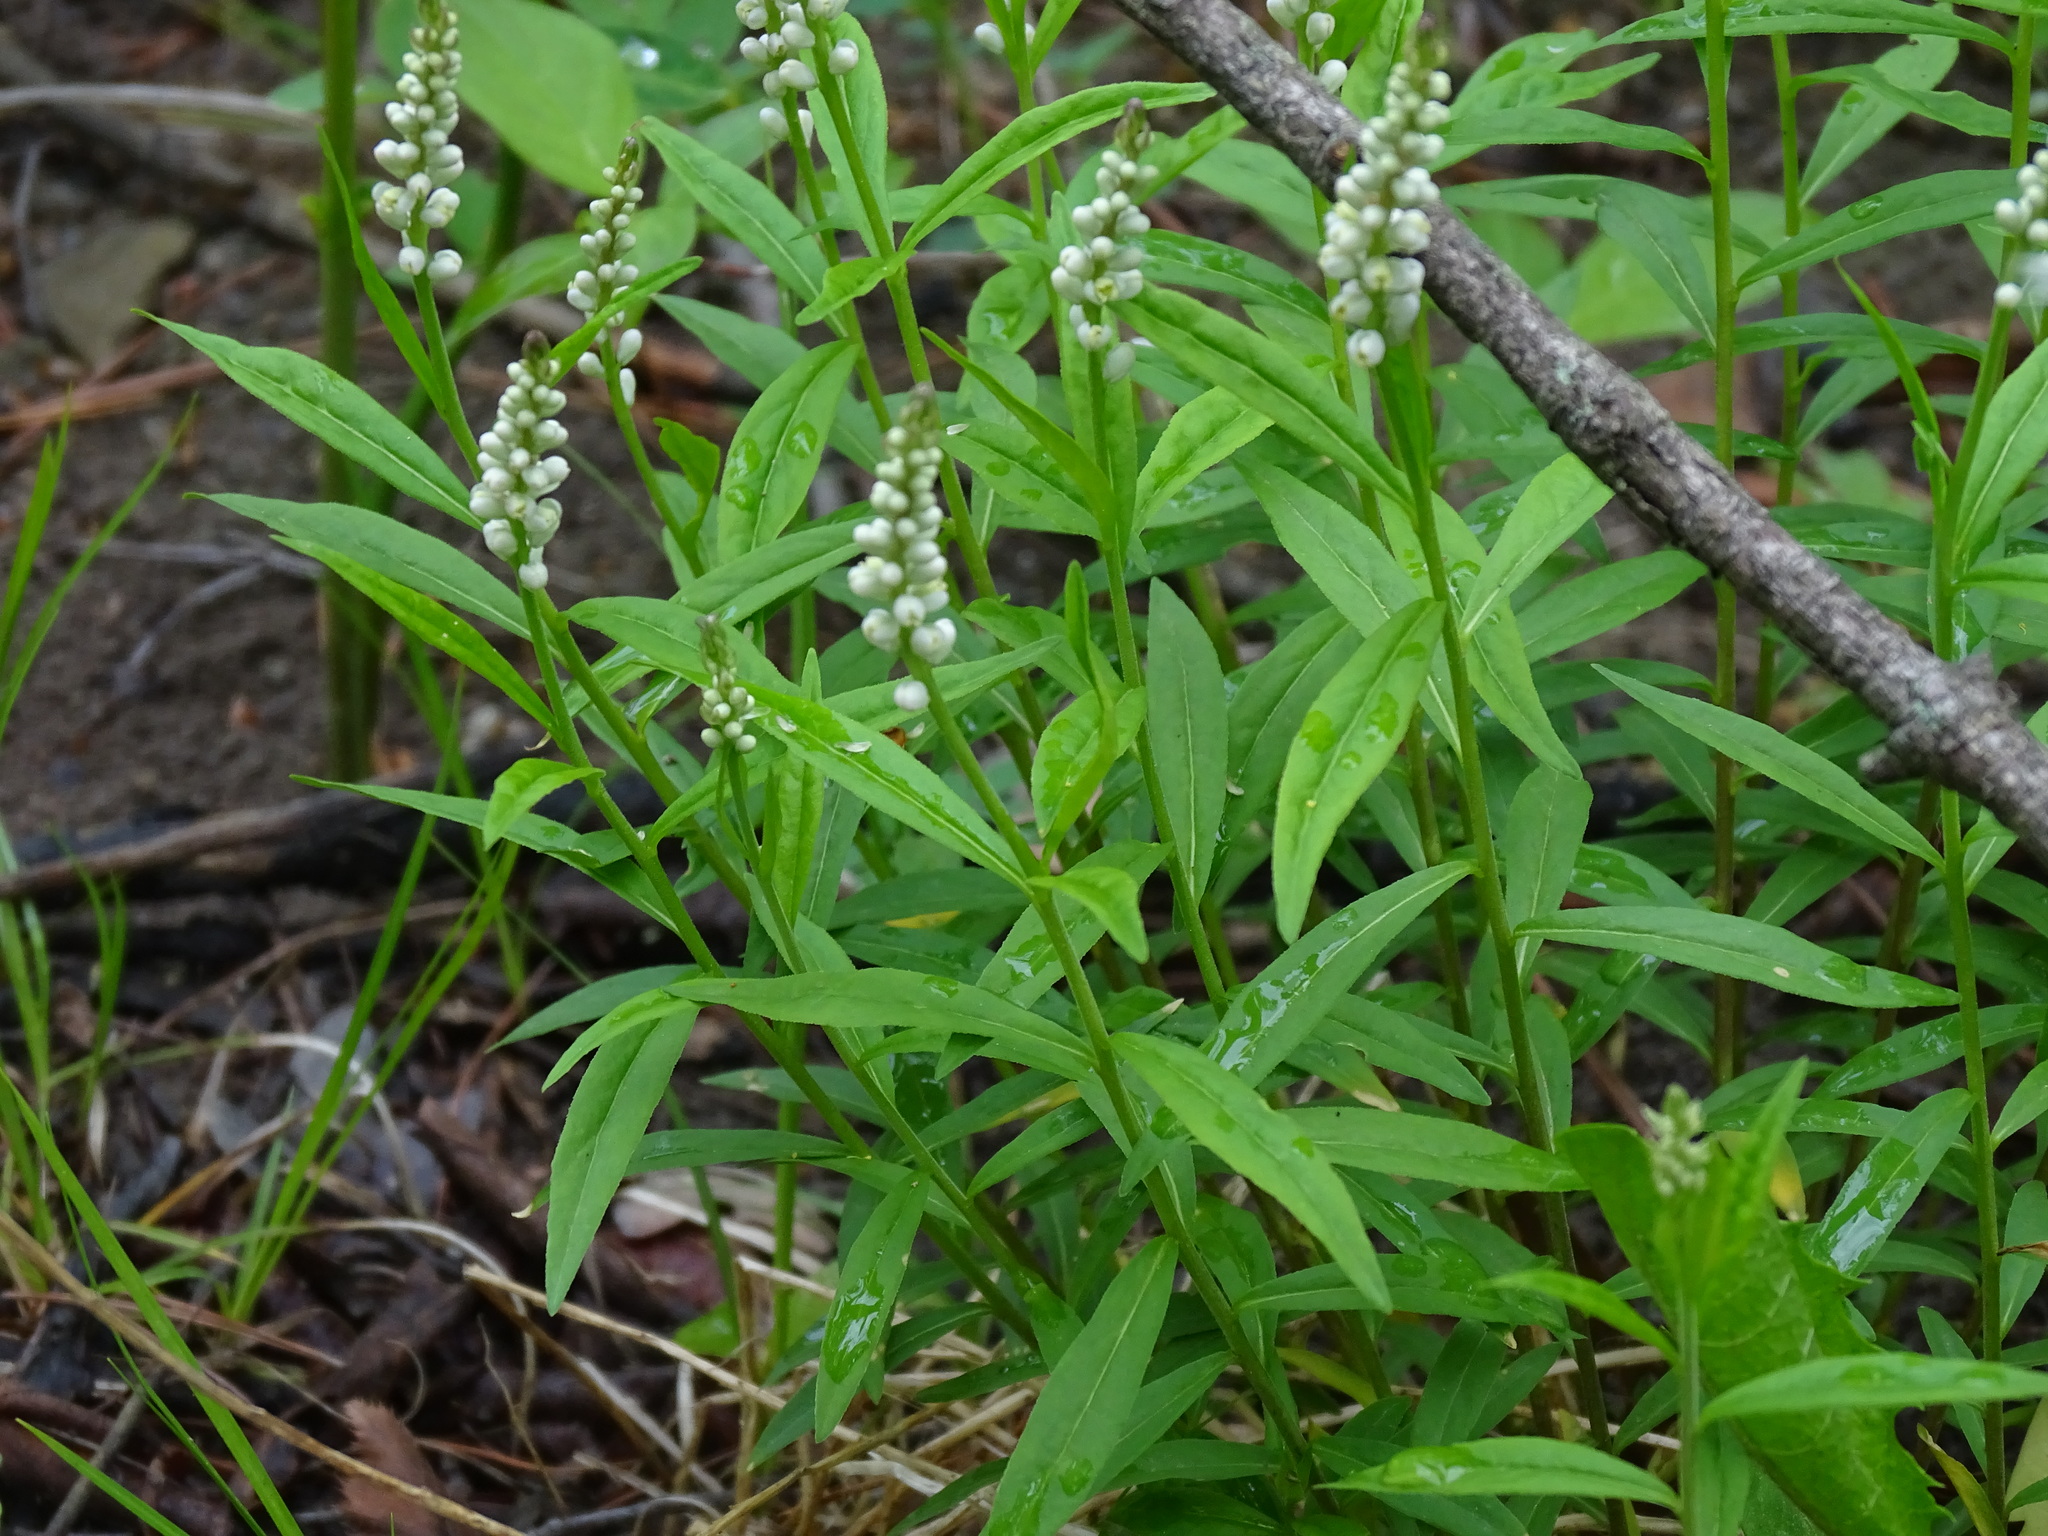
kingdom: Plantae
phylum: Tracheophyta
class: Magnoliopsida
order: Fabales
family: Polygalaceae
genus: Polygala
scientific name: Polygala senega
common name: Seneca snakeroot
